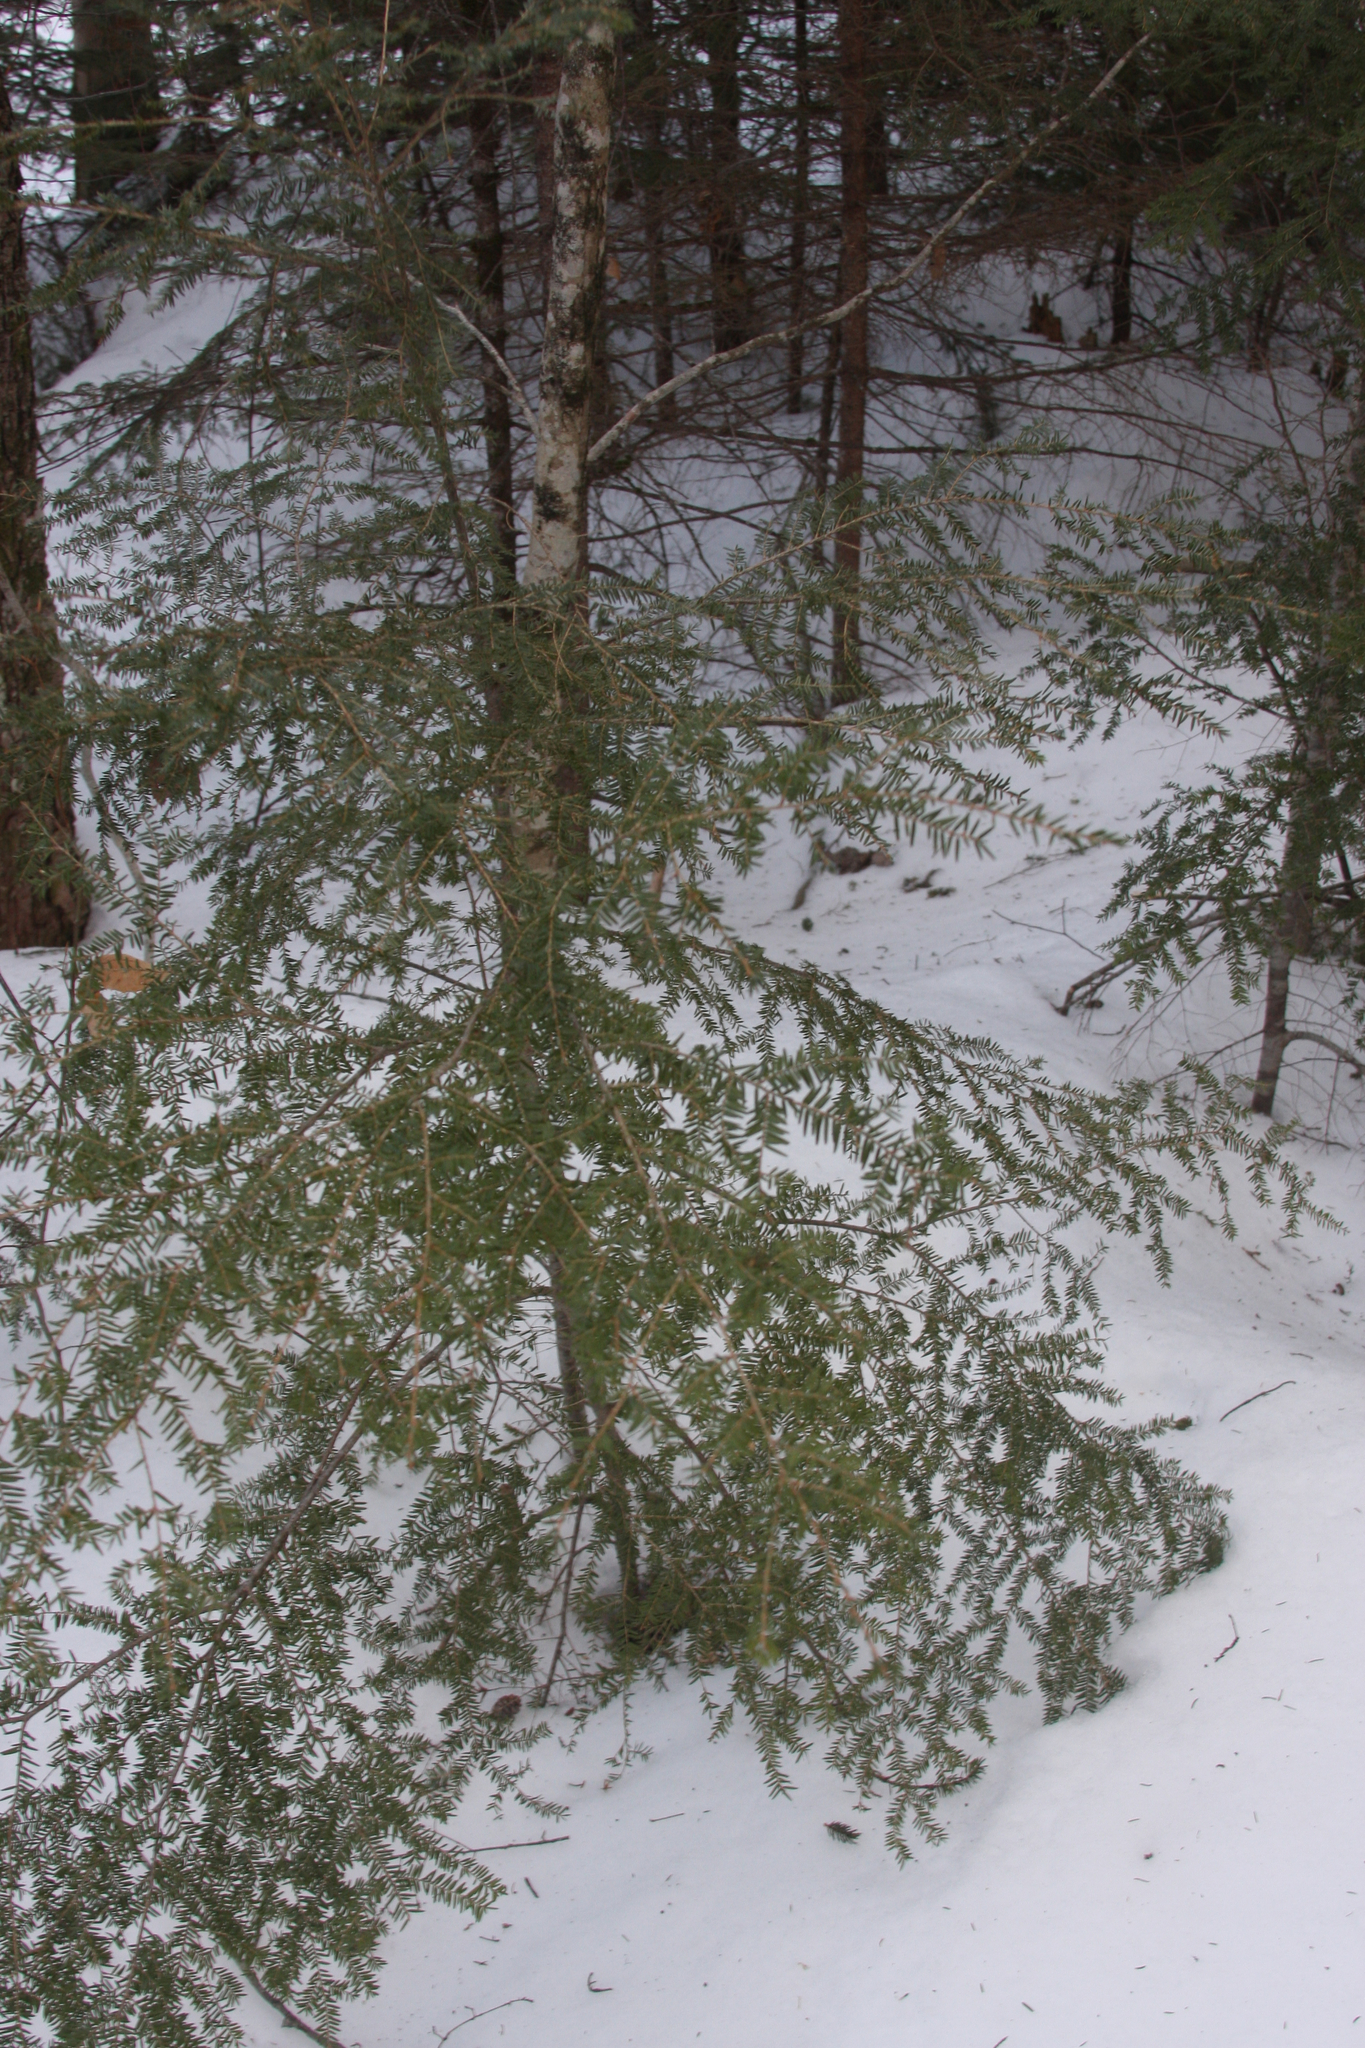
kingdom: Plantae
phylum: Tracheophyta
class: Pinopsida
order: Pinales
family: Pinaceae
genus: Tsuga
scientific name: Tsuga canadensis
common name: Eastern hemlock
